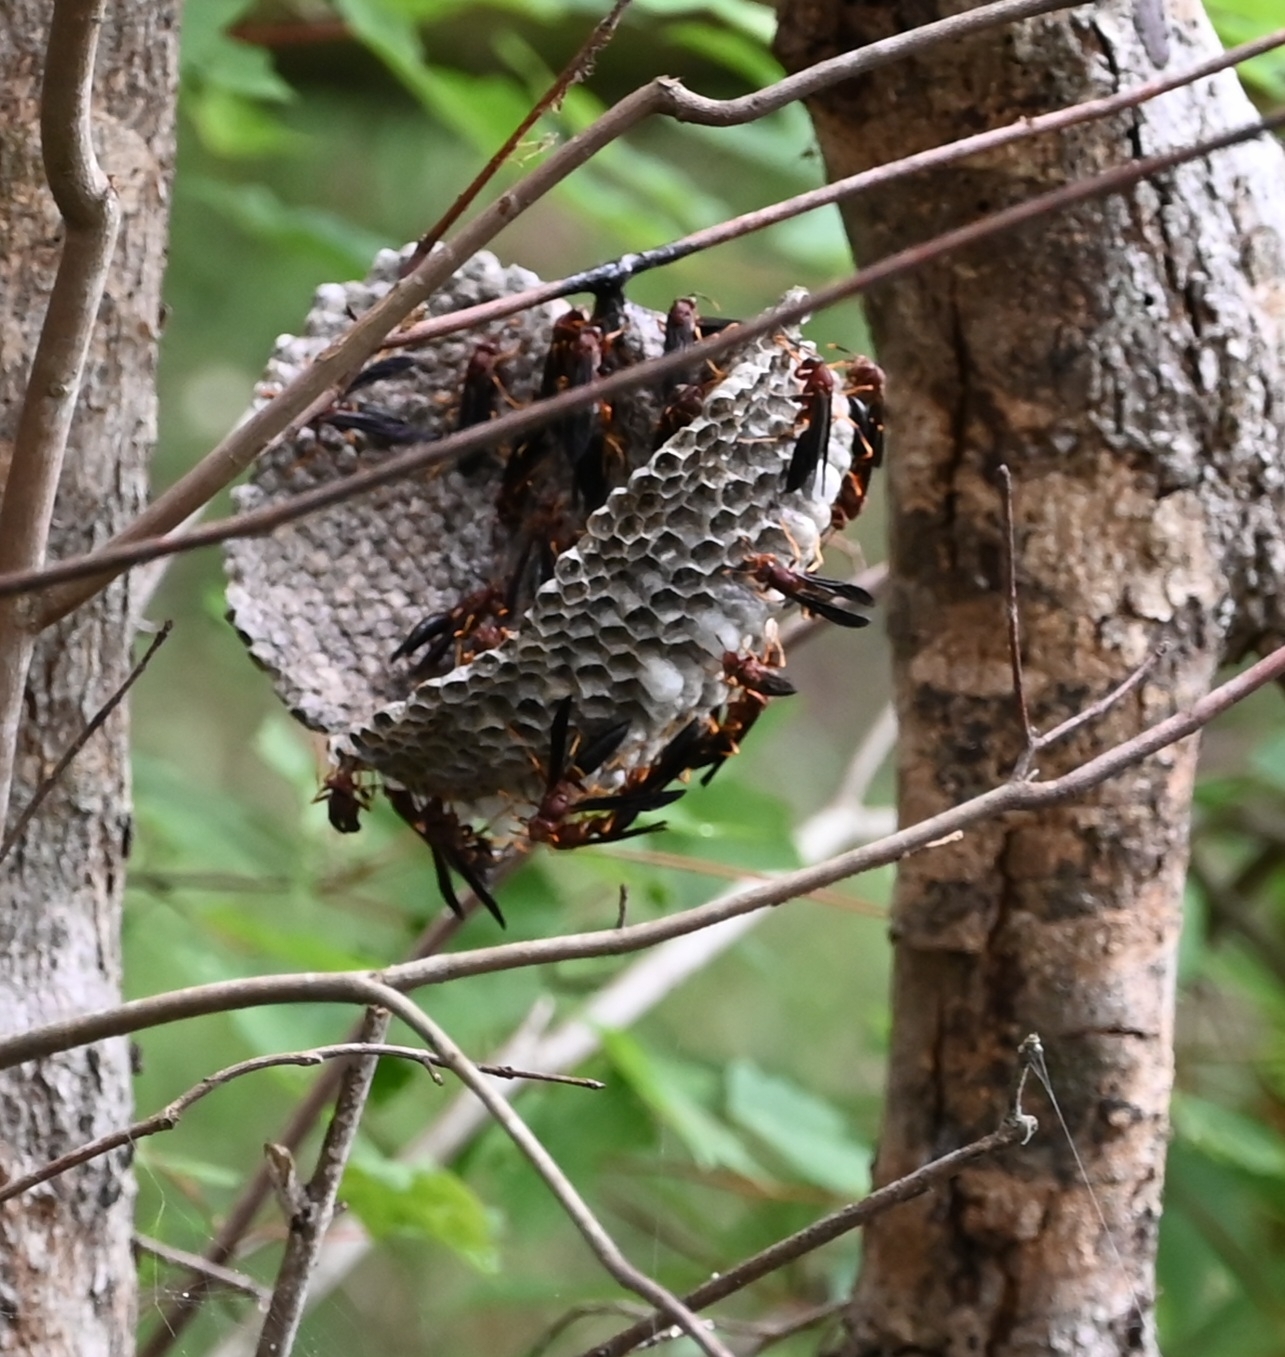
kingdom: Animalia
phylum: Arthropoda
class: Insecta
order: Hymenoptera
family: Eumenidae
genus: Polistes
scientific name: Polistes annularis
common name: Ringed paper wasp
